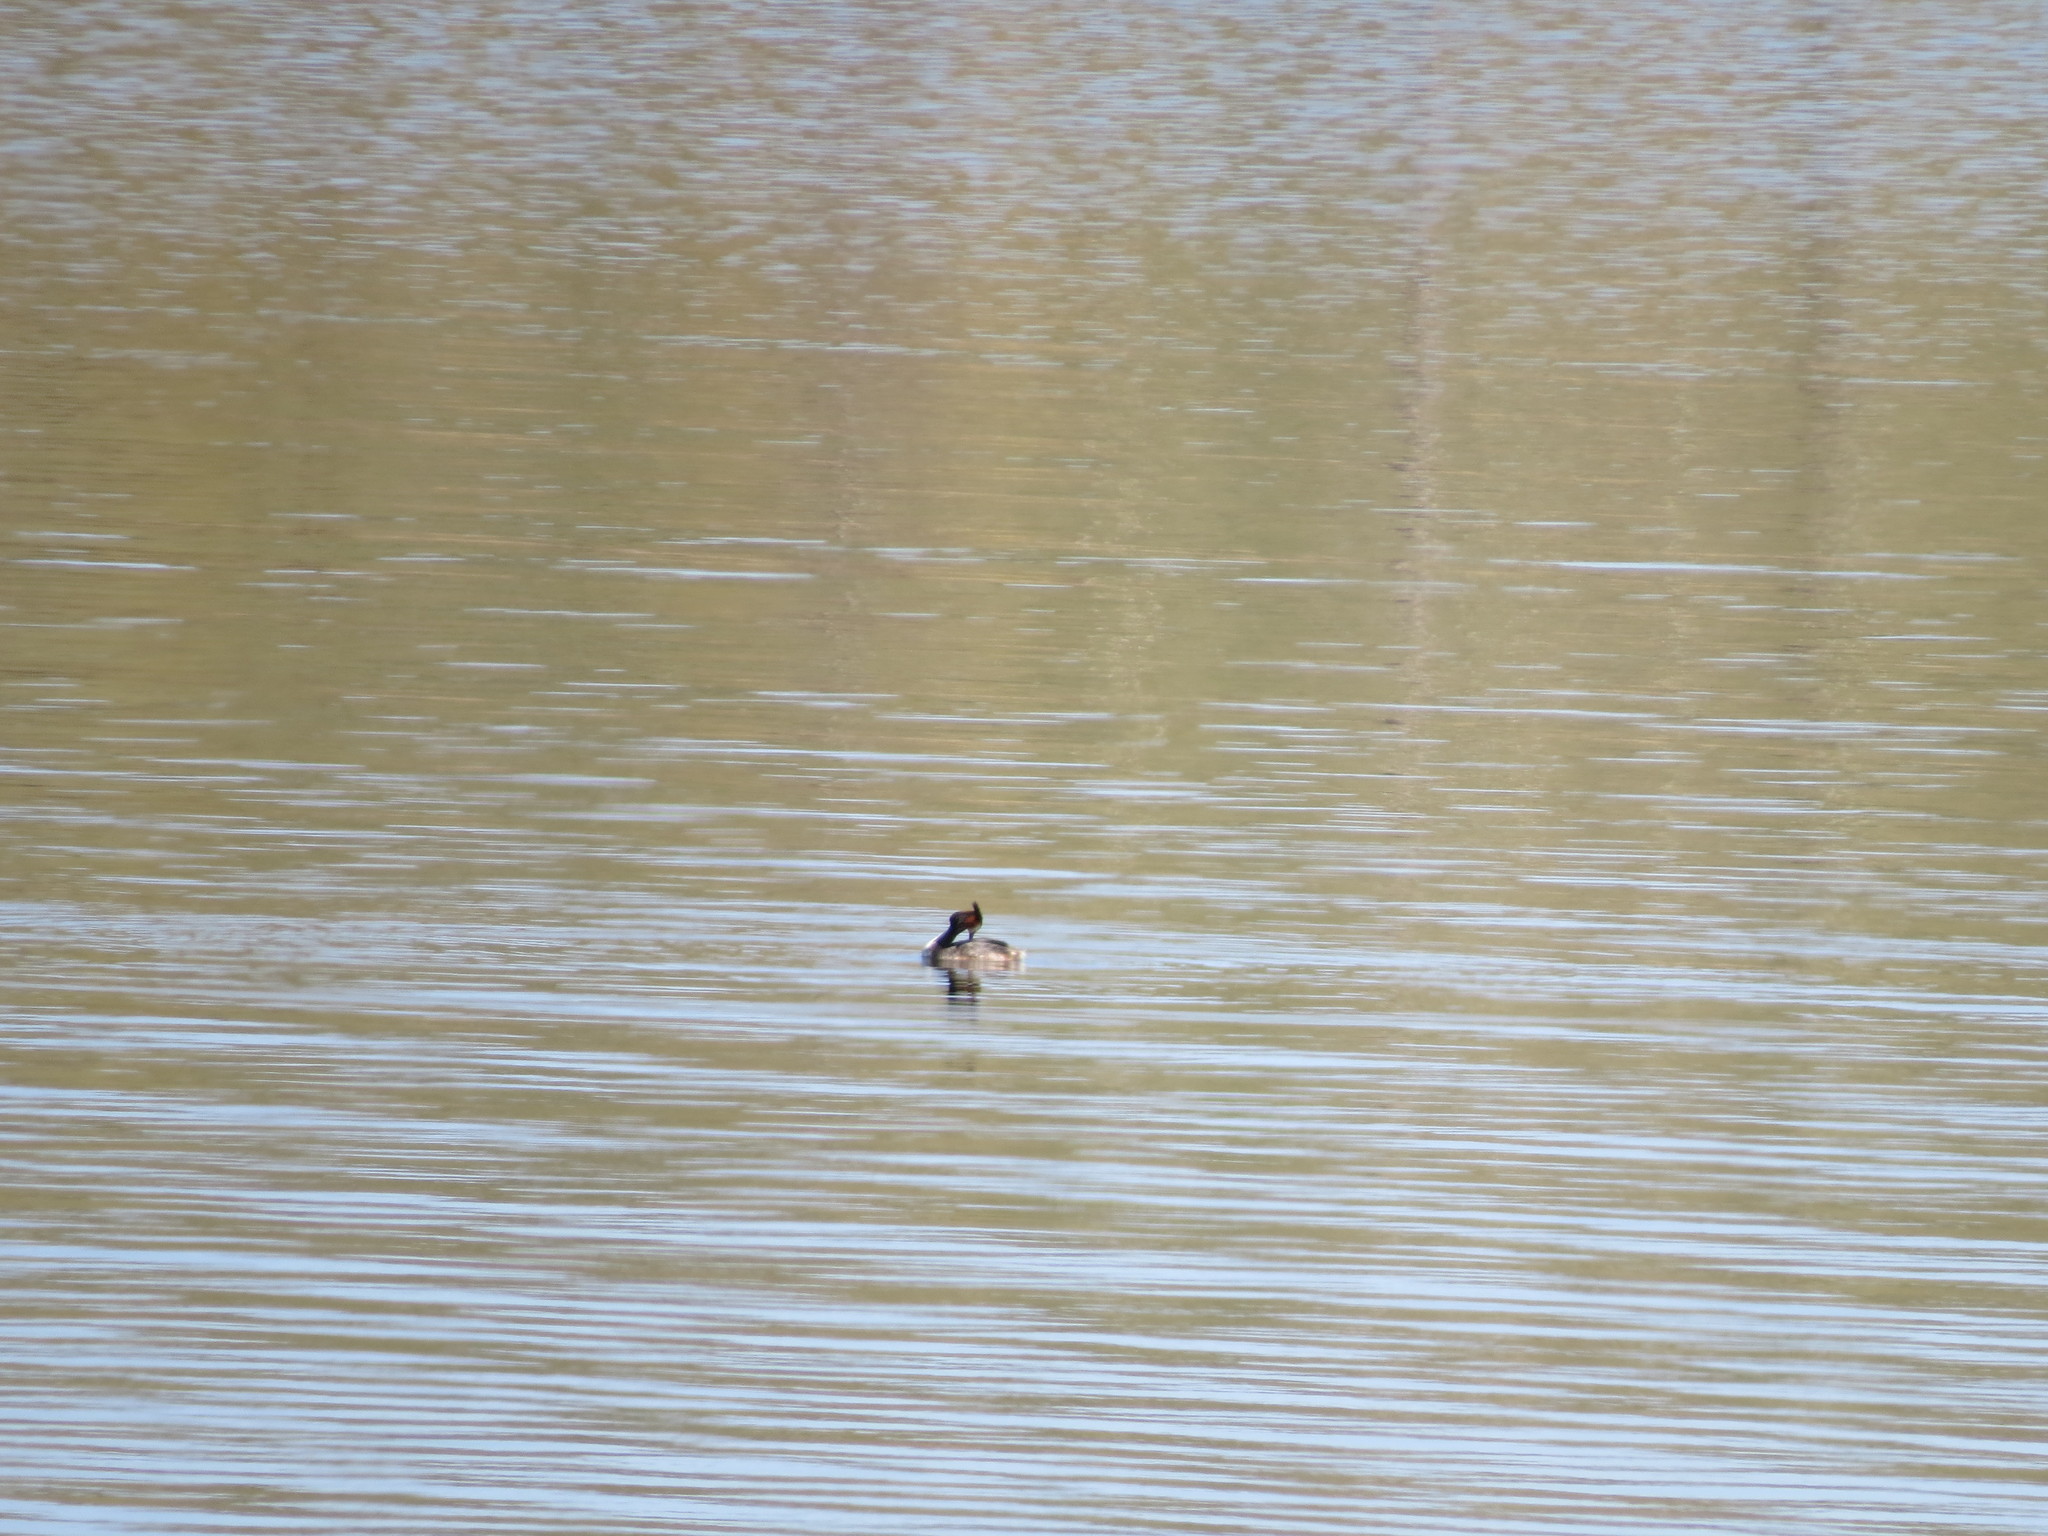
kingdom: Animalia
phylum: Chordata
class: Aves
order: Podicipediformes
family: Podicipedidae
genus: Podiceps
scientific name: Podiceps cristatus
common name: Great crested grebe
